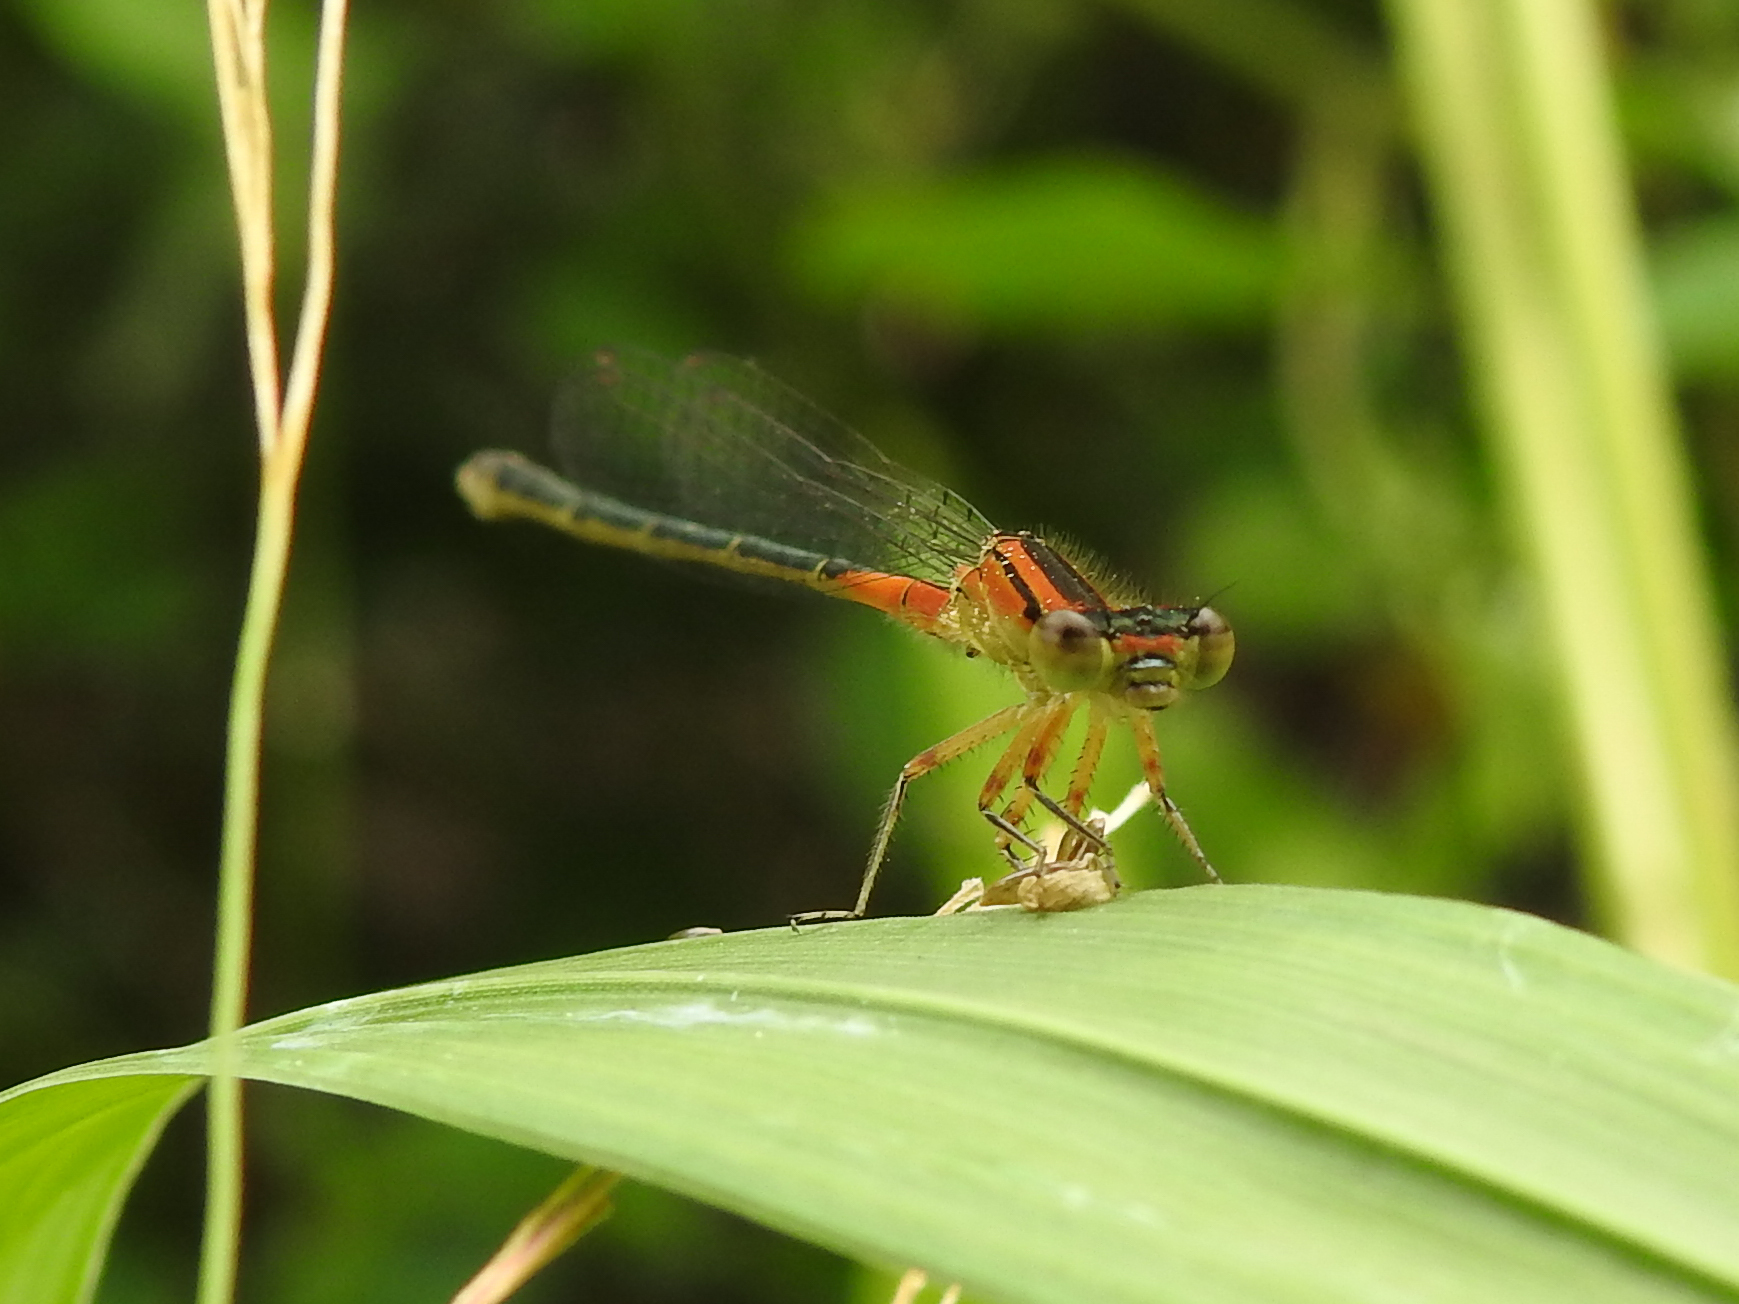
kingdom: Animalia
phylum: Arthropoda
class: Insecta
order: Odonata
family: Coenagrionidae
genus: Ischnura
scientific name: Ischnura verticalis
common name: Eastern forktail
